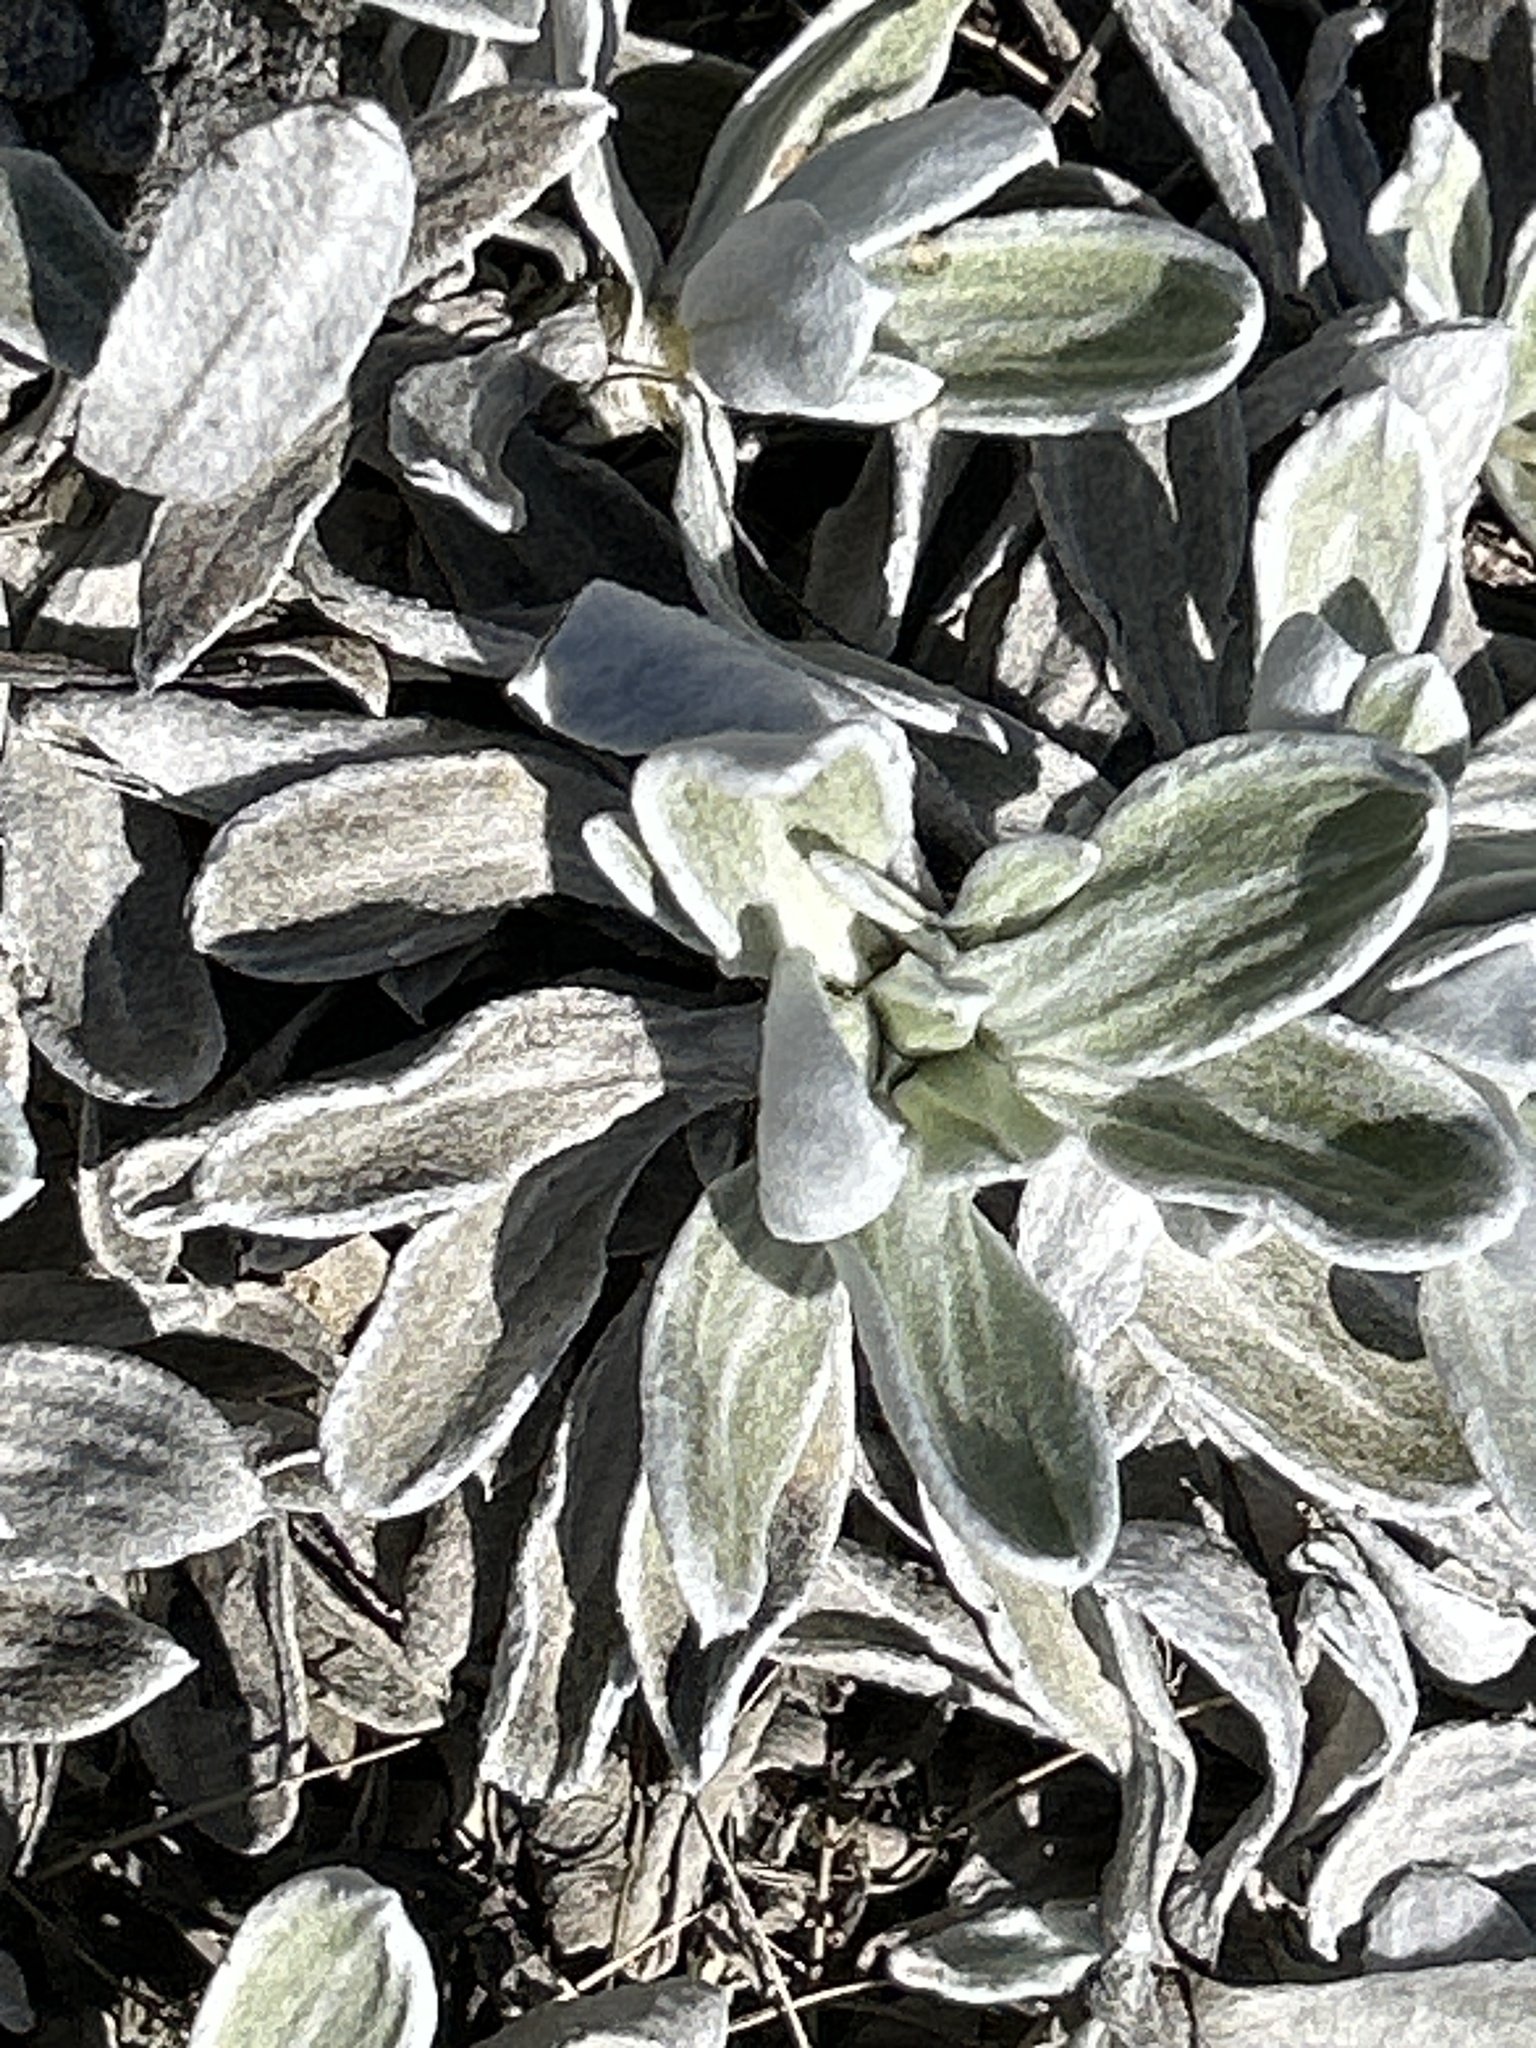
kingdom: Plantae
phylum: Tracheophyta
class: Magnoliopsida
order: Asterales
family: Asteraceae
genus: Celmisia
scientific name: Celmisia allanii
